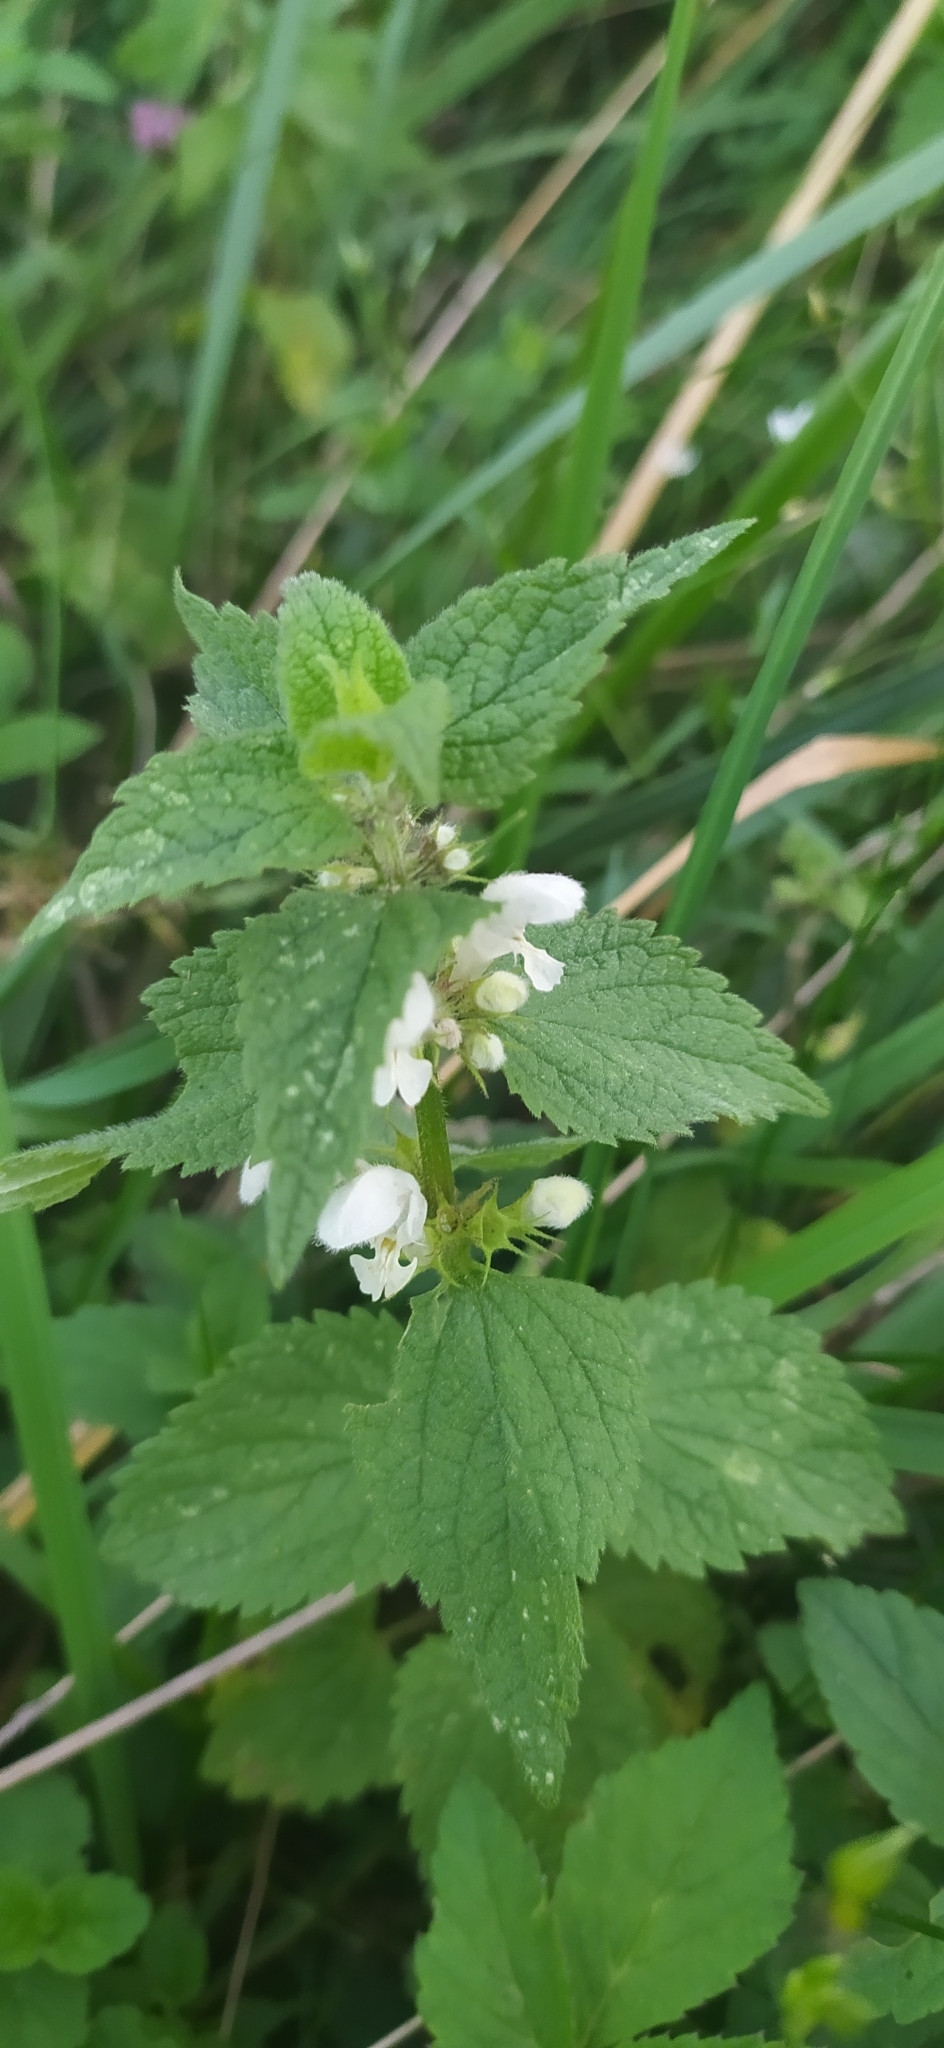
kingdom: Plantae
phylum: Tracheophyta
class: Magnoliopsida
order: Lamiales
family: Lamiaceae
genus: Lamium
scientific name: Lamium album
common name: White dead-nettle
